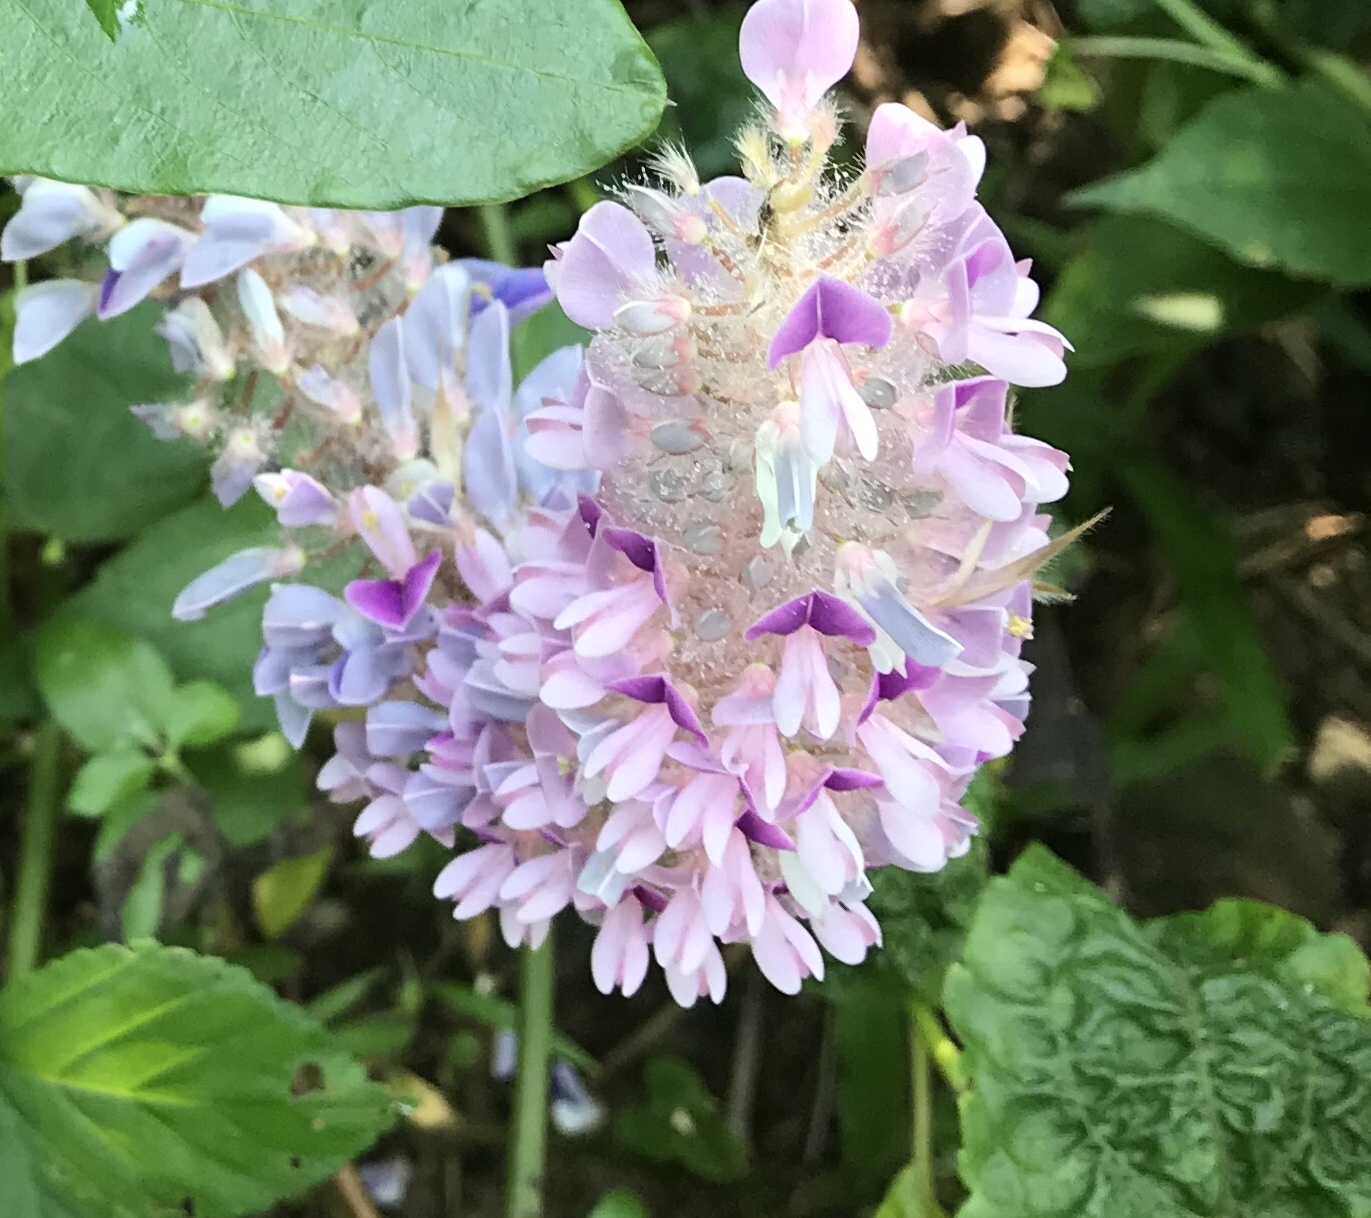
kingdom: Plantae
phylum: Tracheophyta
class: Magnoliopsida
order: Fabales
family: Fabaceae
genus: Uraria
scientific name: Uraria crinita
